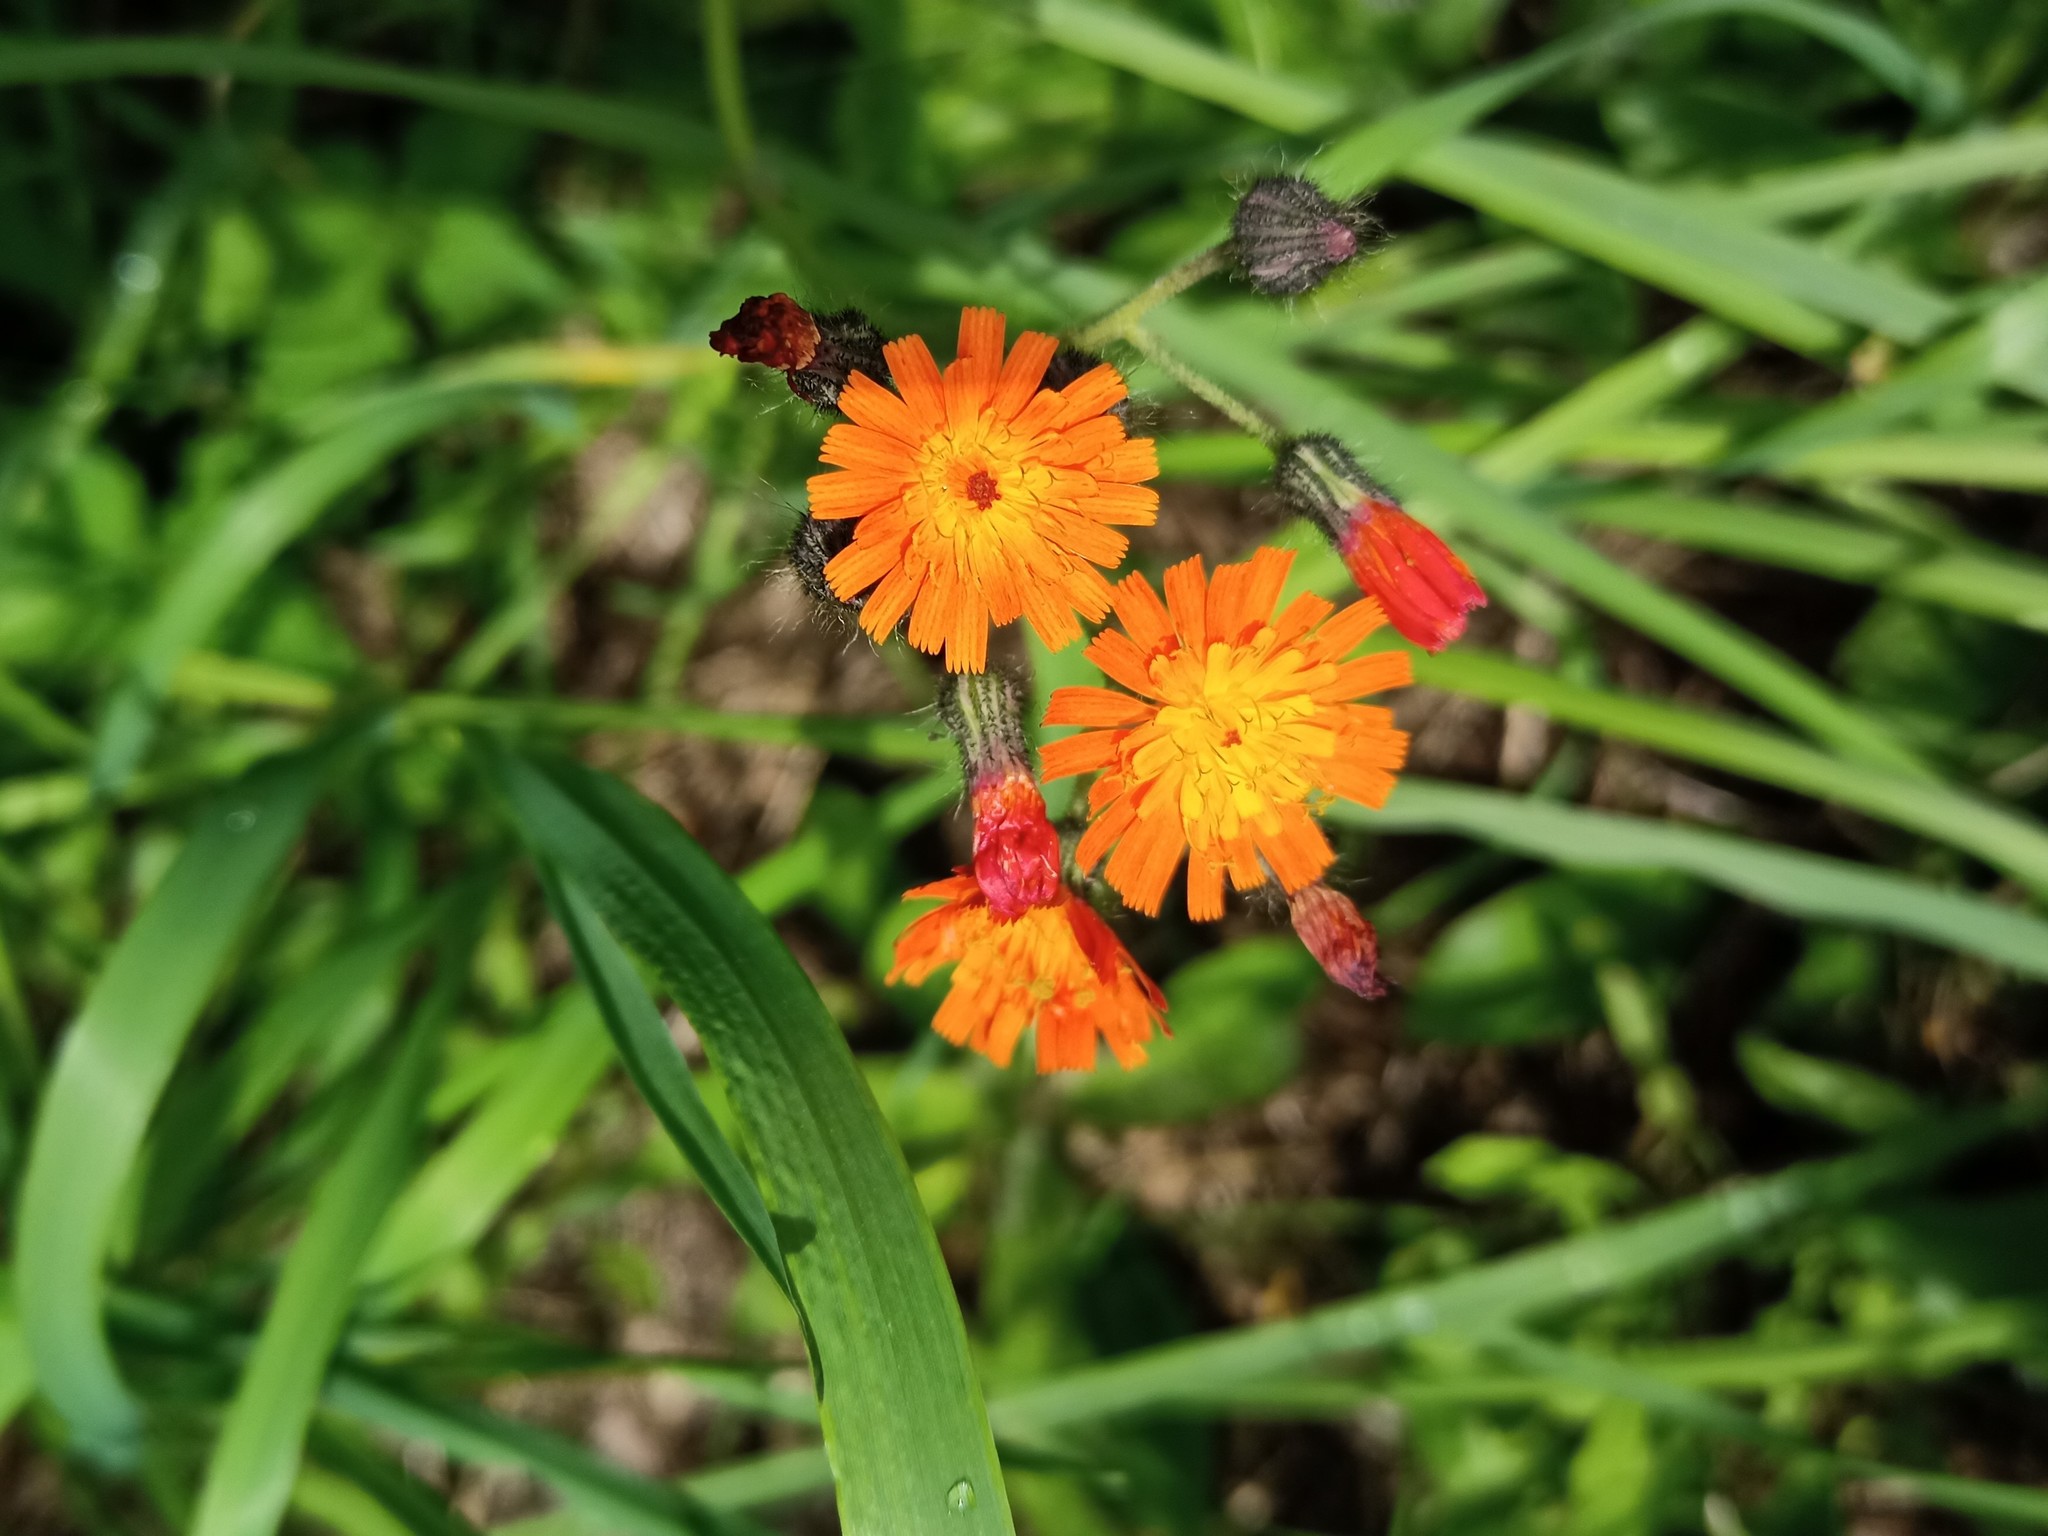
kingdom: Plantae
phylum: Tracheophyta
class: Magnoliopsida
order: Asterales
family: Asteraceae
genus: Pilosella
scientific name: Pilosella aurantiaca
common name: Fox-and-cubs
